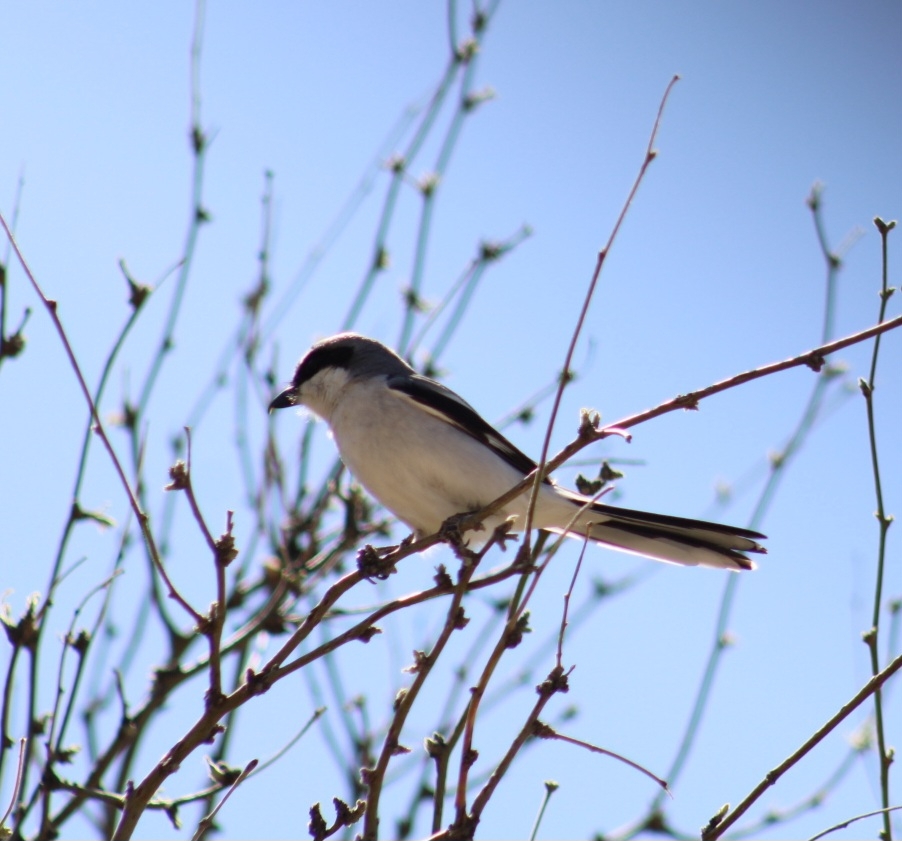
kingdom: Animalia
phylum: Chordata
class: Aves
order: Passeriformes
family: Laniidae
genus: Lanius
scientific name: Lanius ludovicianus
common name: Loggerhead shrike
